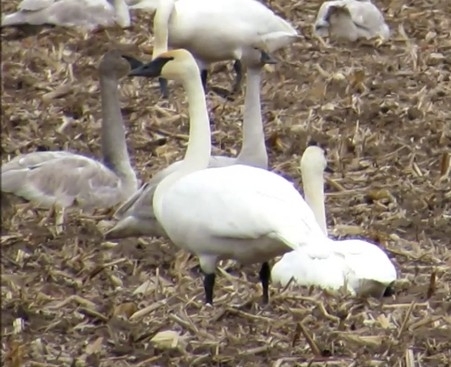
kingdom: Animalia
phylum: Chordata
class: Aves
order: Anseriformes
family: Anatidae
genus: Cygnus
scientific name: Cygnus buccinator
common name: Trumpeter swan
